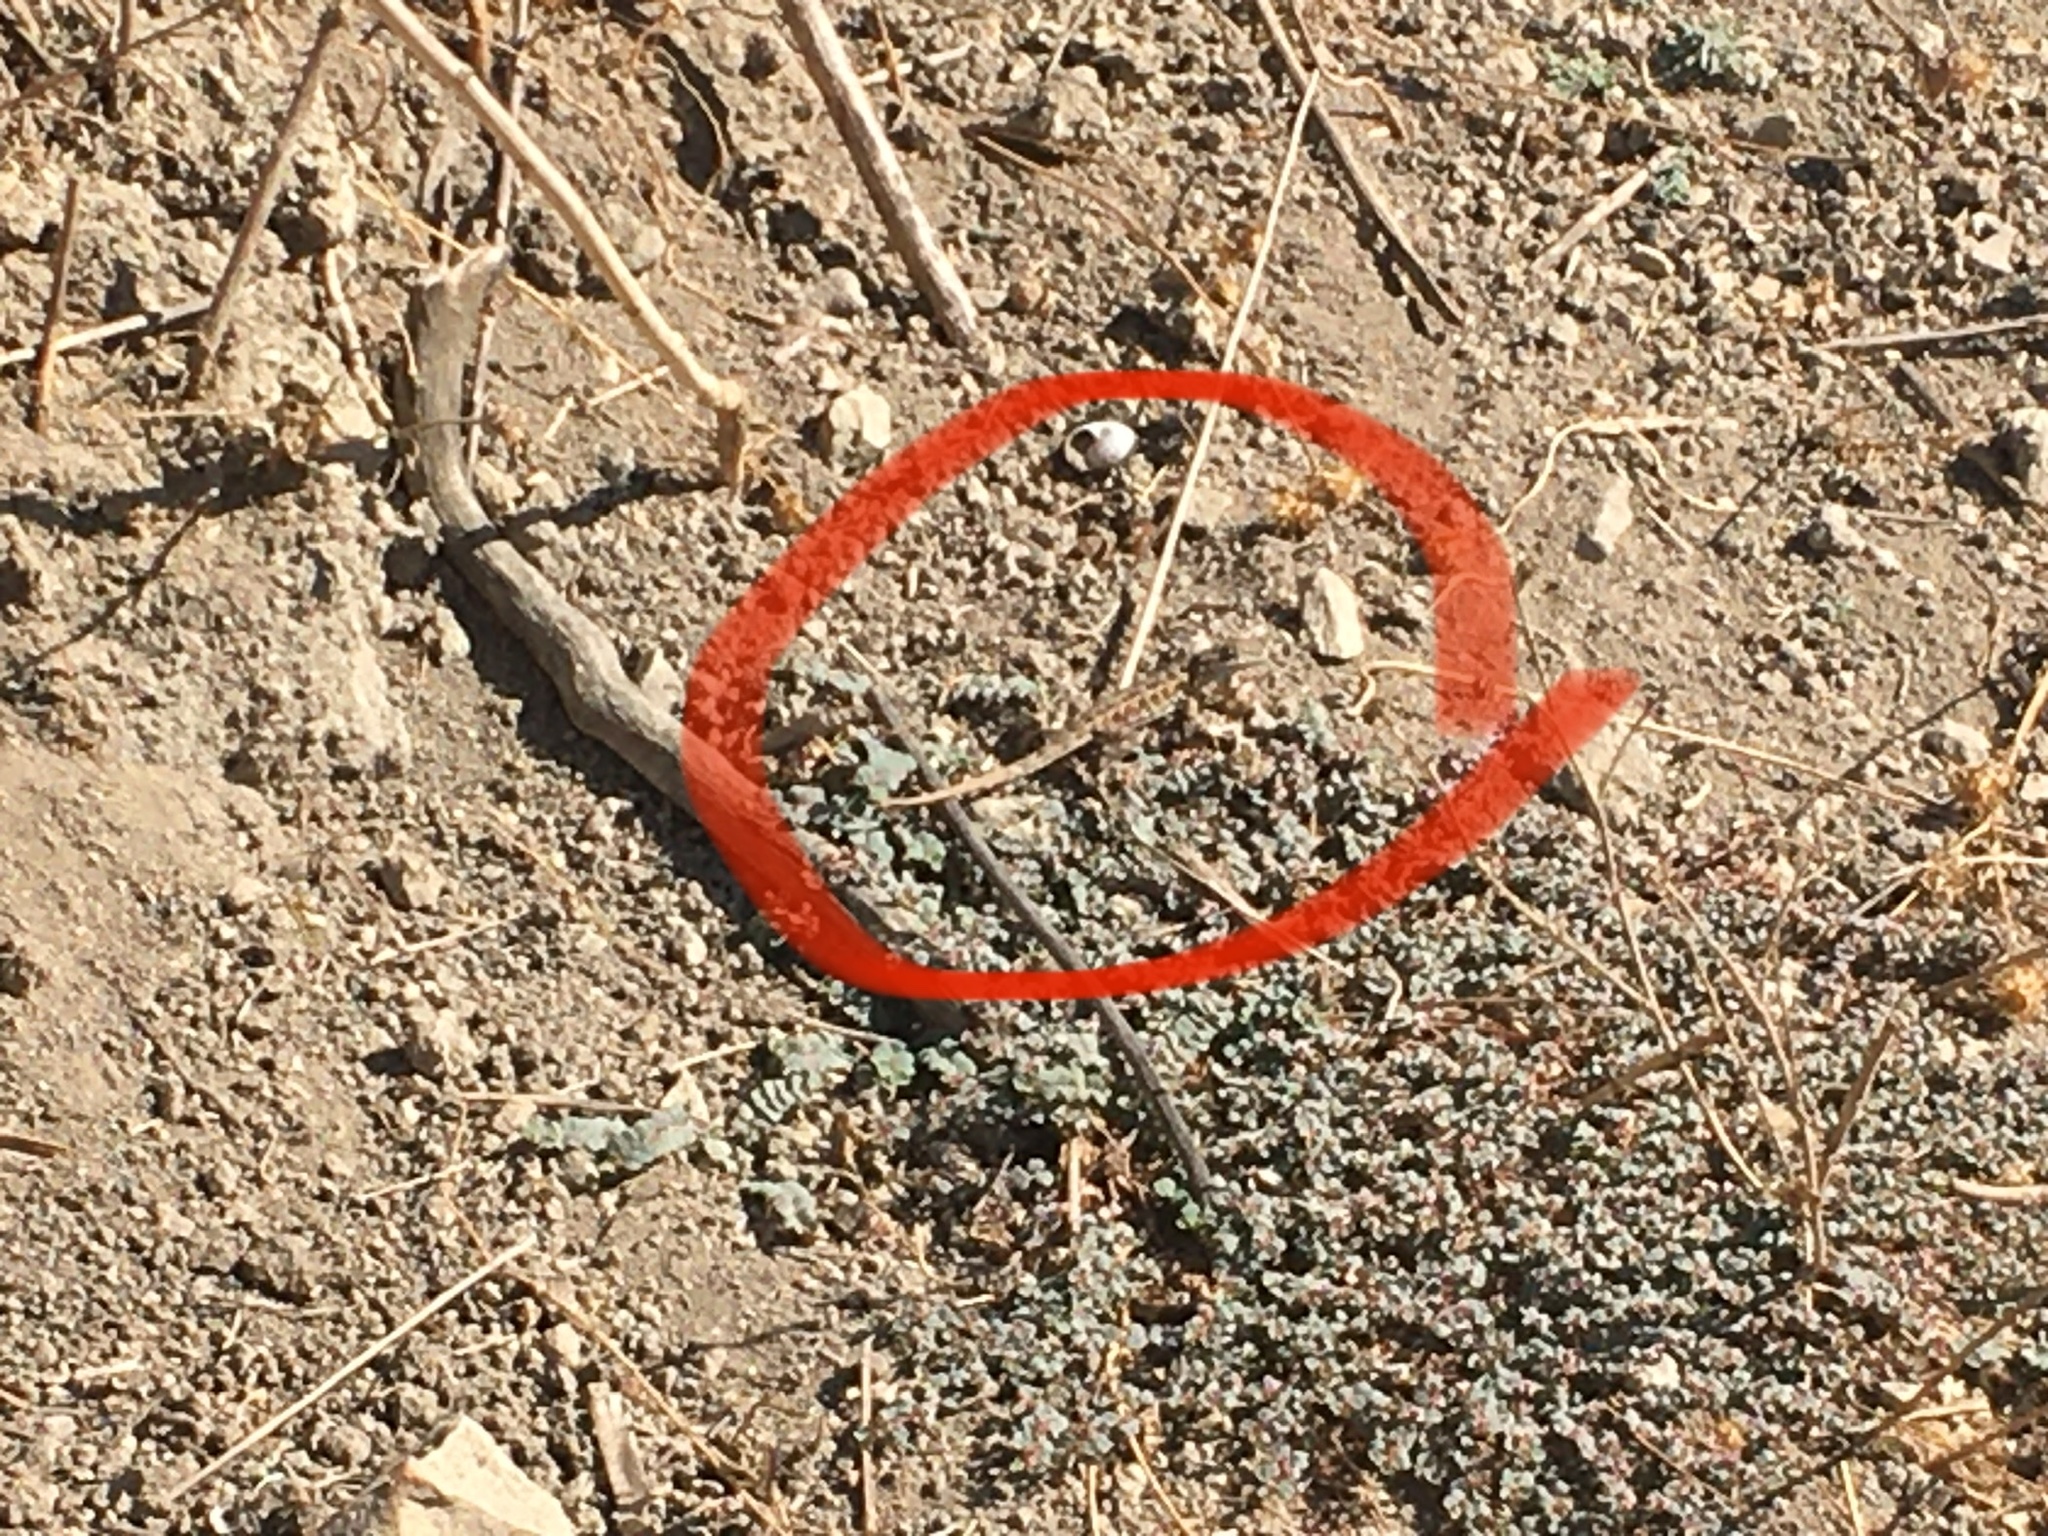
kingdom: Animalia
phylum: Chordata
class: Squamata
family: Phrynosomatidae
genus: Uta
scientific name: Uta stansburiana
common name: Side-blotched lizard
